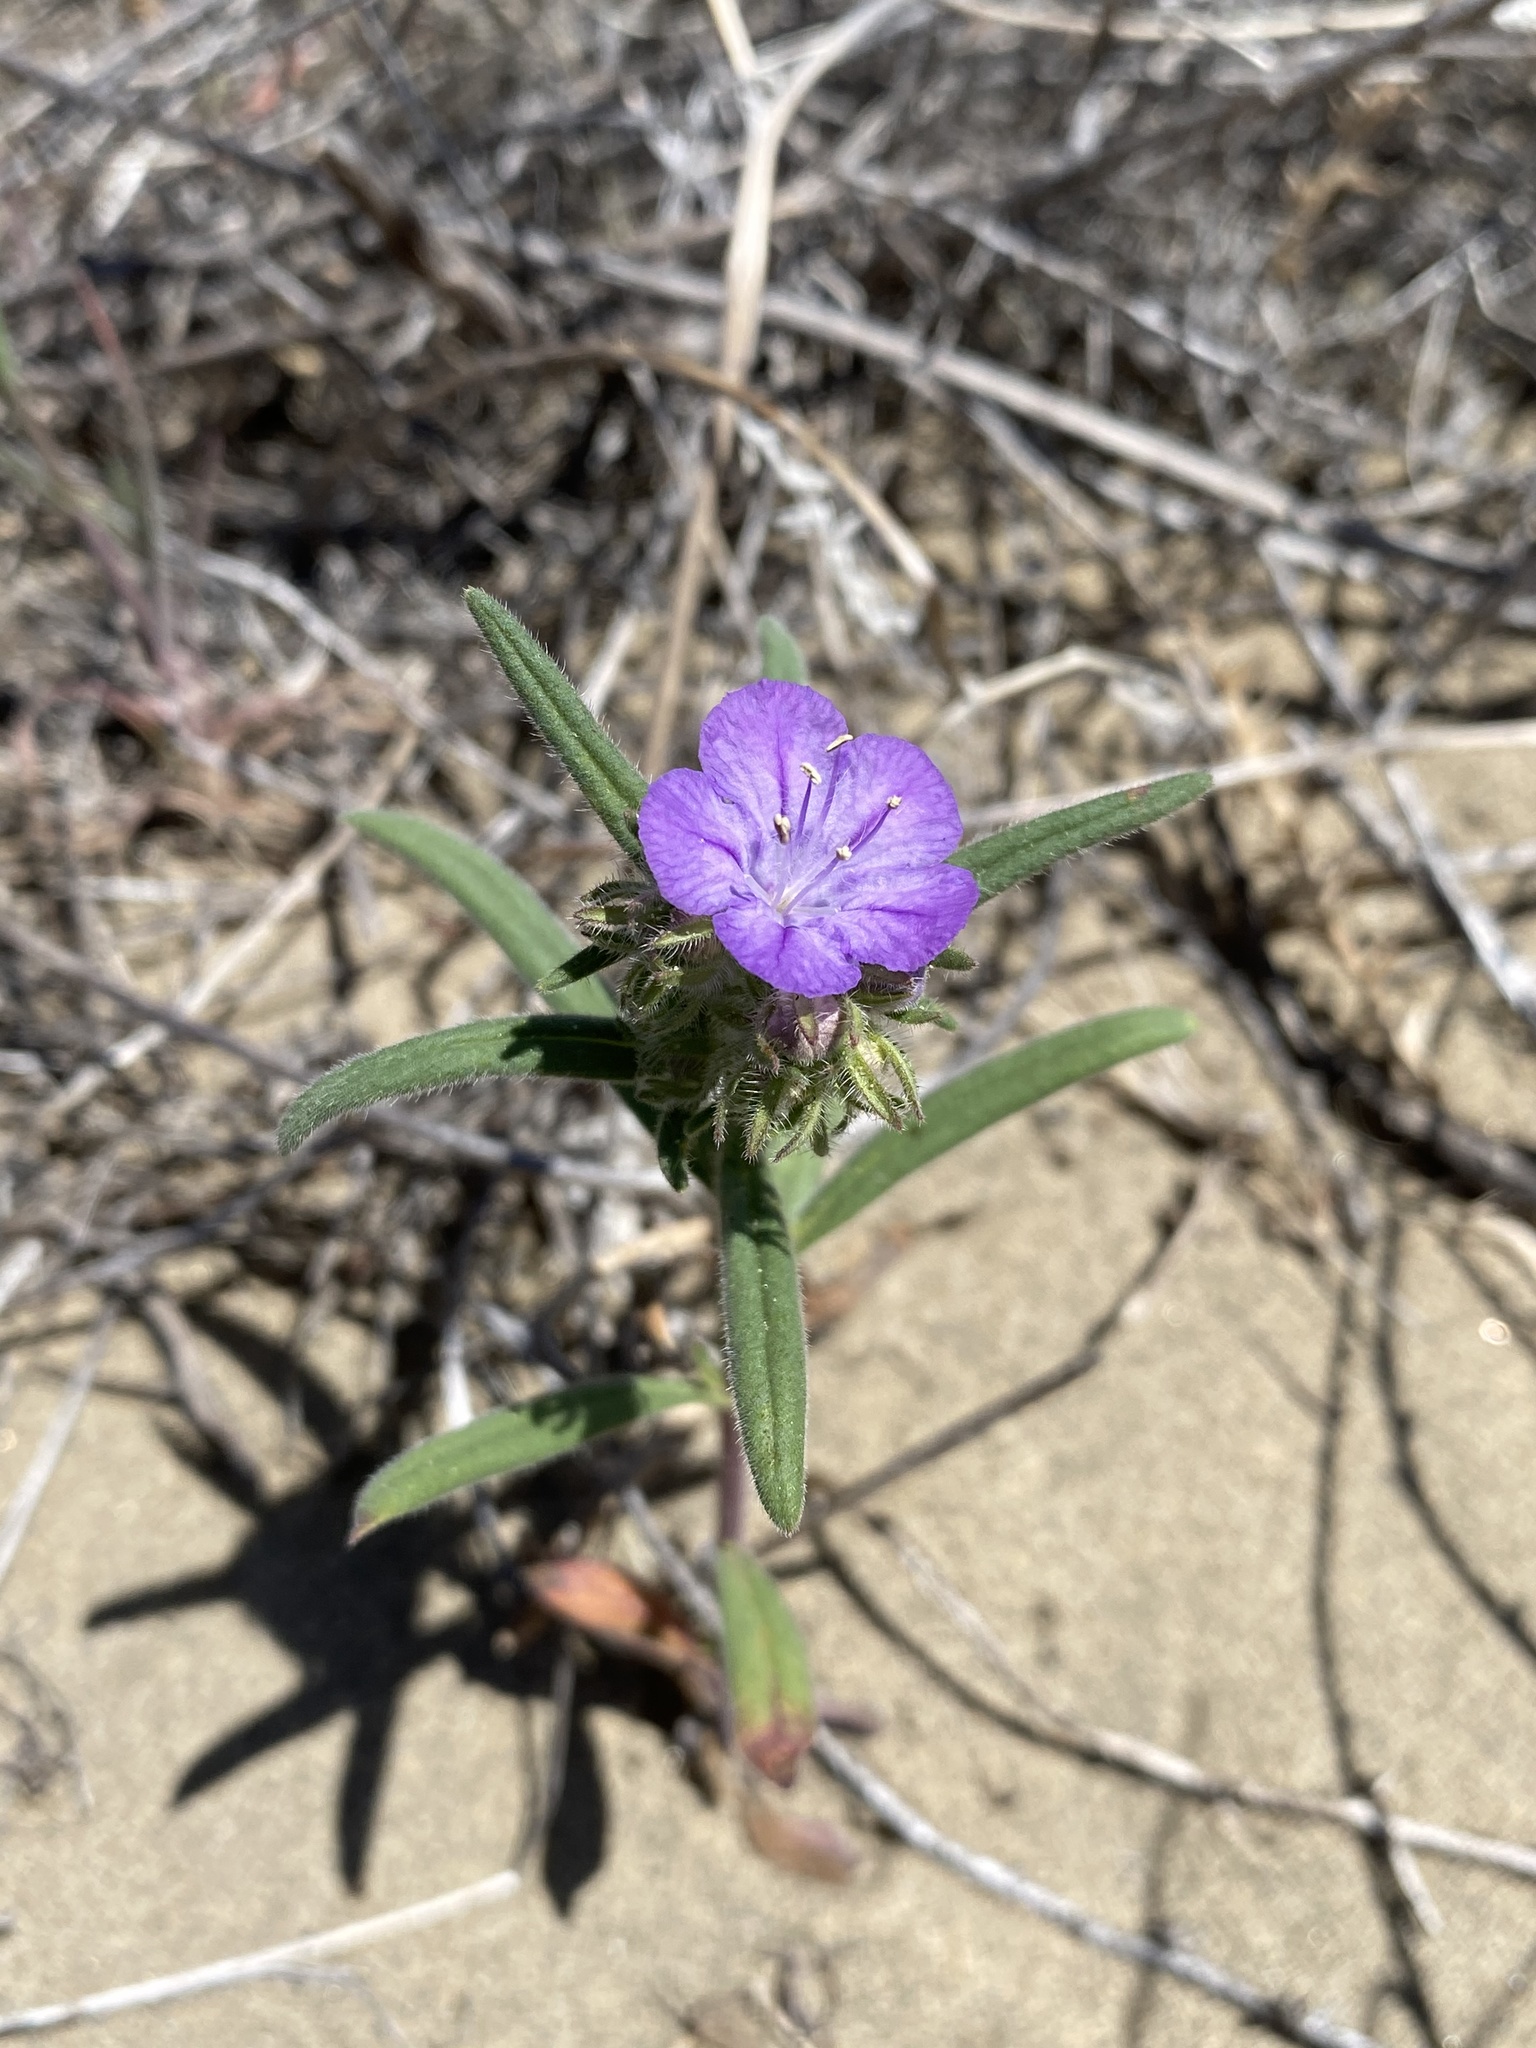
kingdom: Plantae
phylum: Tracheophyta
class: Magnoliopsida
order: Boraginales
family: Hydrophyllaceae
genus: Phacelia
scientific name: Phacelia linearis
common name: Linear-leaved phacelia
